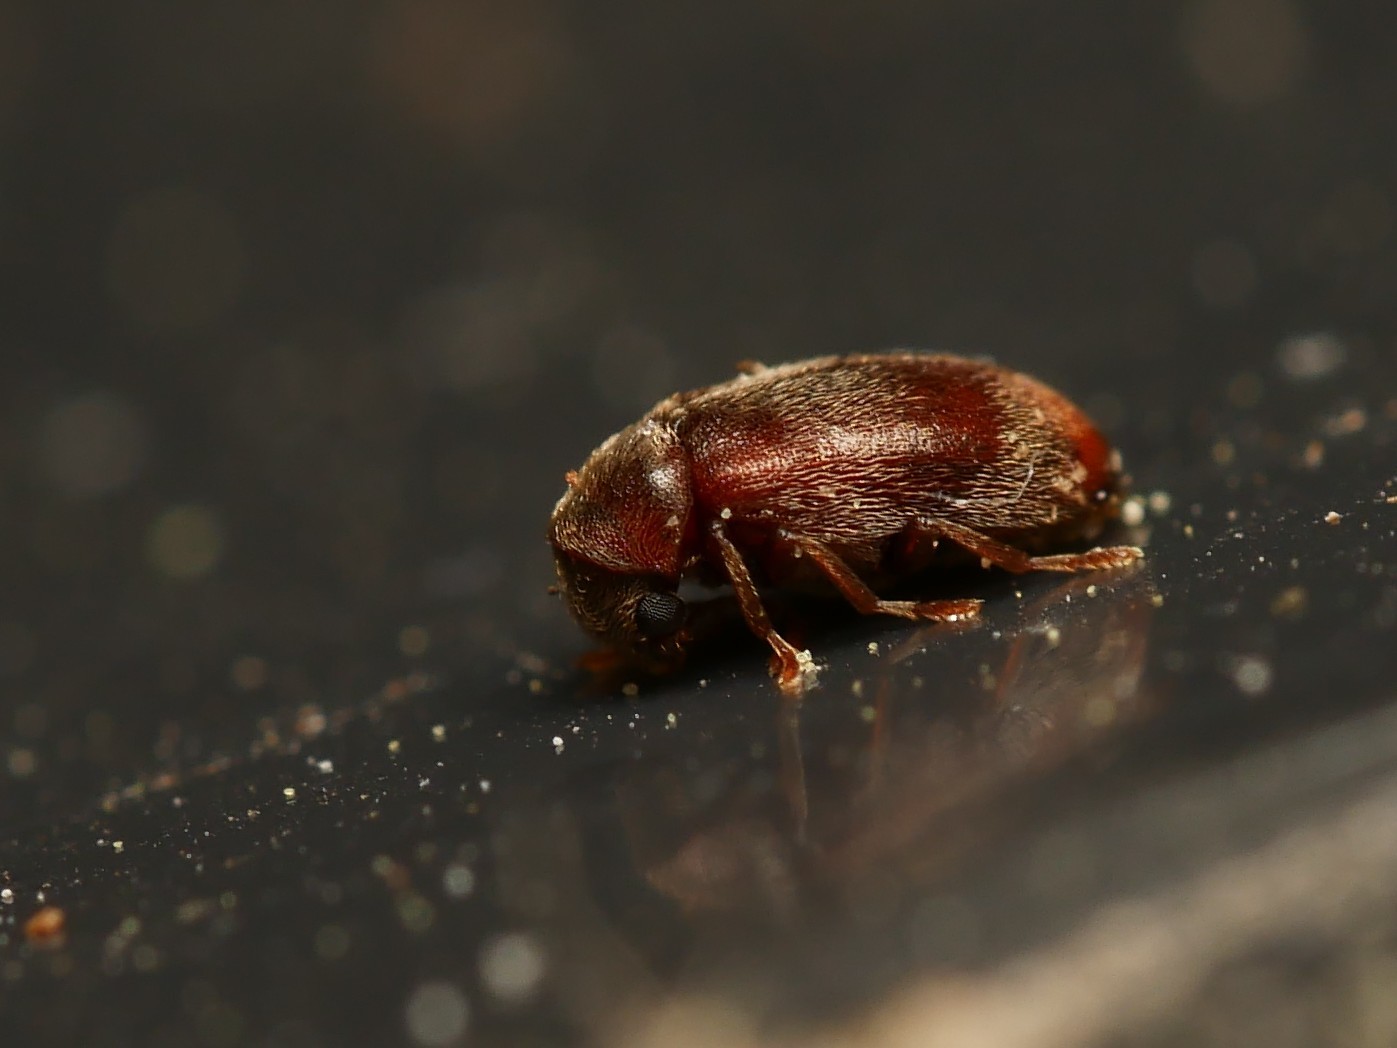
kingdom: Animalia
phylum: Arthropoda
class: Insecta
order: Coleoptera
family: Ptinidae
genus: Ochina
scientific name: Ochina ptinoides
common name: Ivy boring beetle
